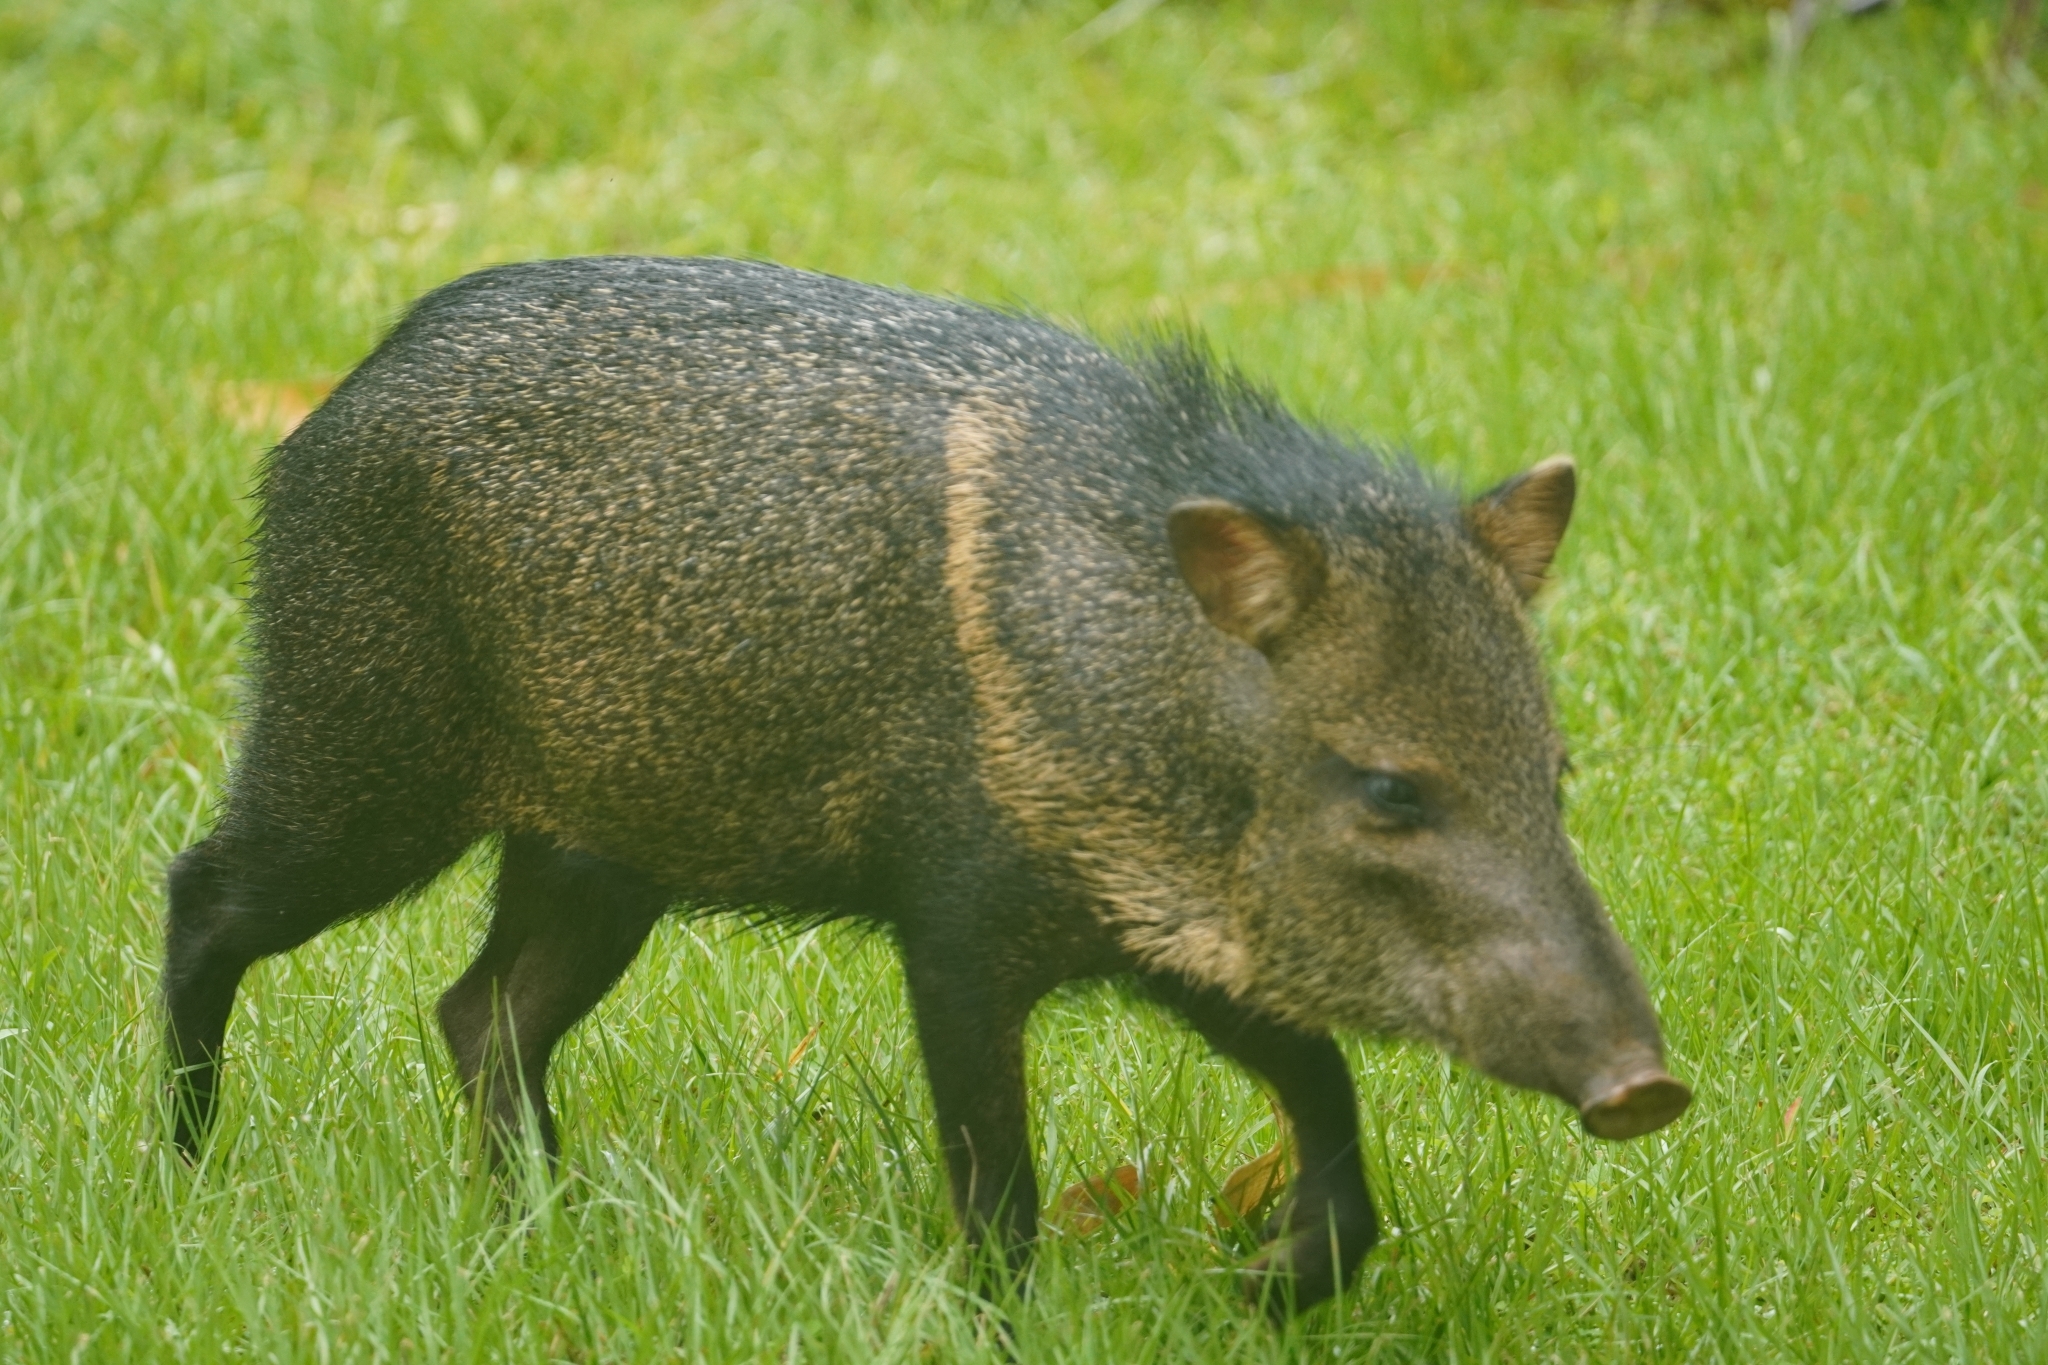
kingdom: Animalia
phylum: Chordata
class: Mammalia
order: Artiodactyla
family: Tayassuidae
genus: Pecari
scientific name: Pecari tajacu
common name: Collared peccary
